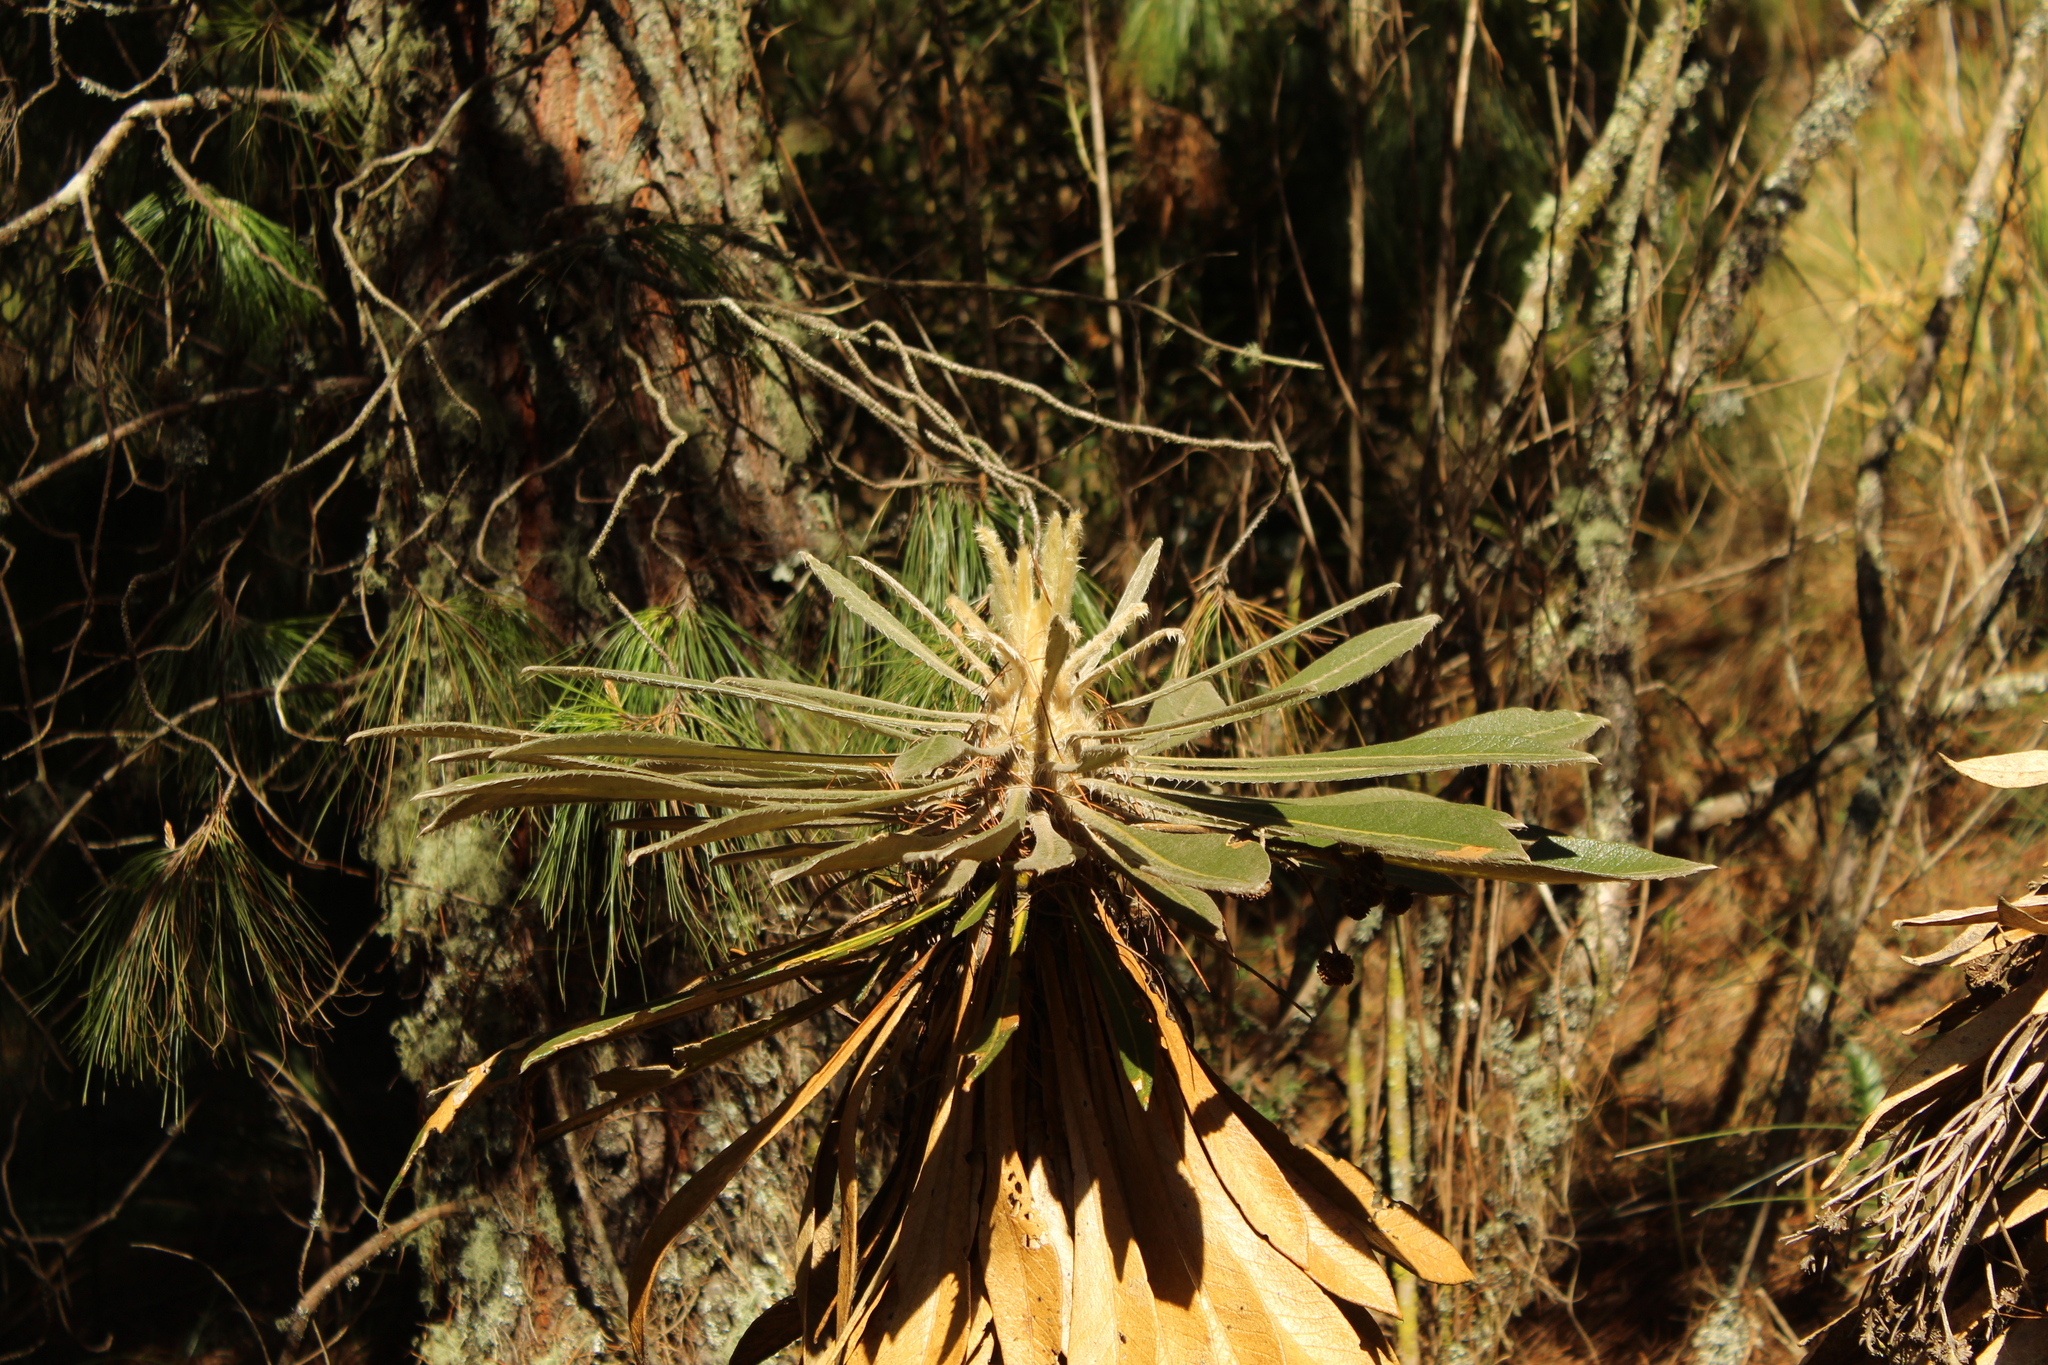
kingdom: Plantae
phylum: Tracheophyta
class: Magnoliopsida
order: Asterales
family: Asteraceae
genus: Espeletia
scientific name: Espeletia guacharaca
